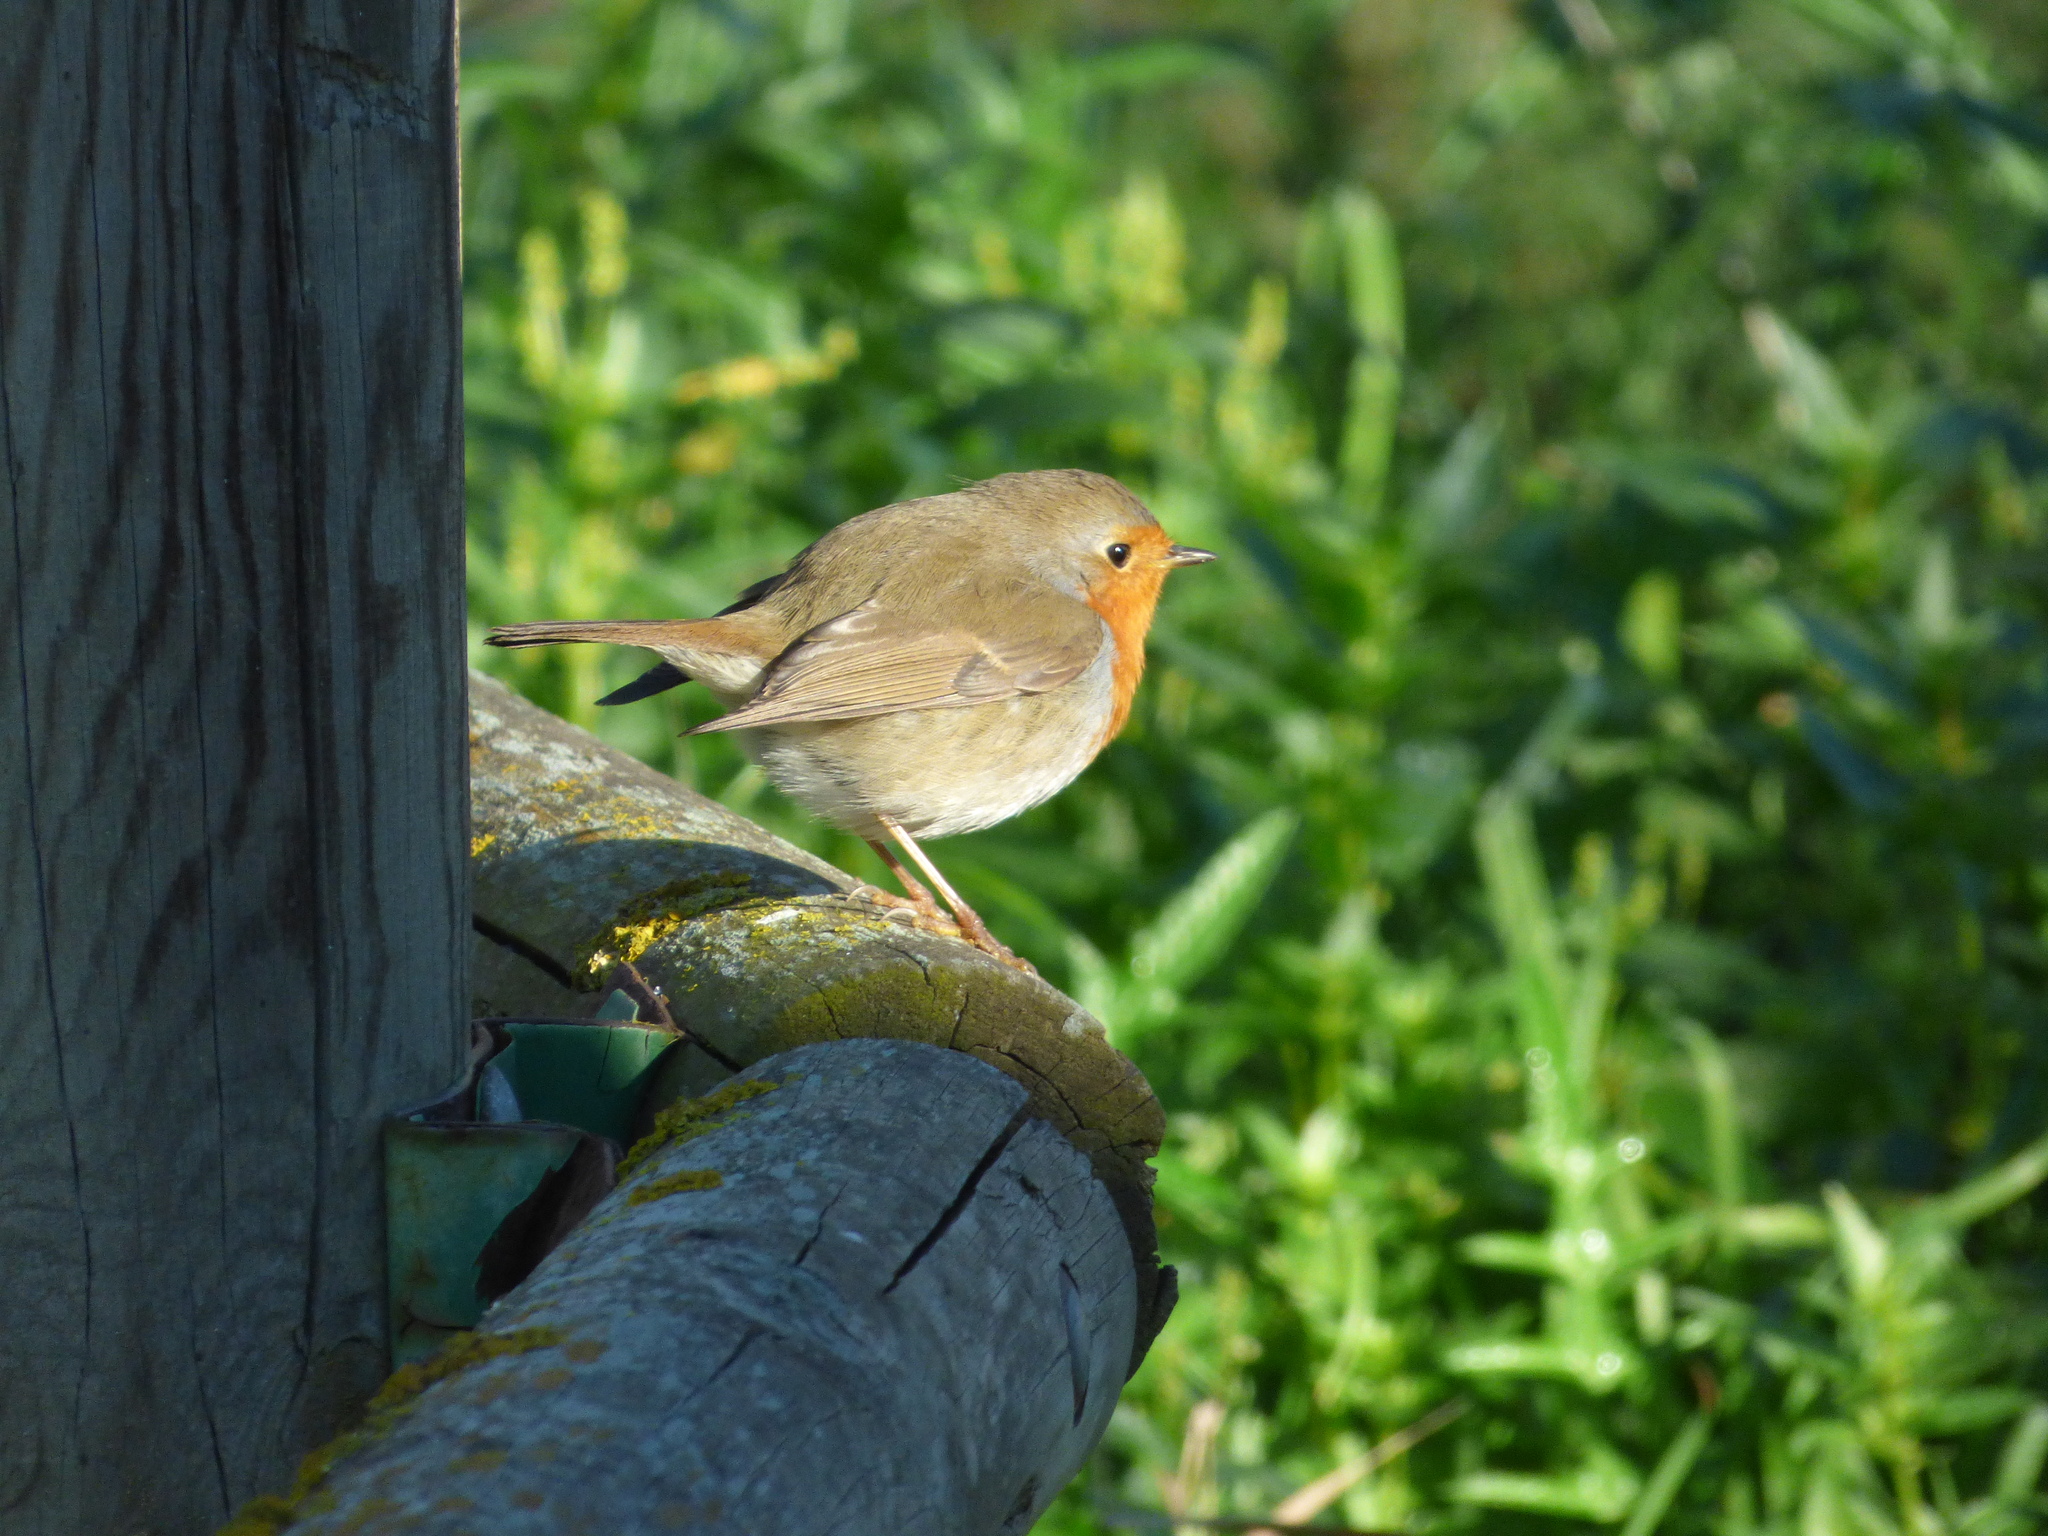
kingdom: Animalia
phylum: Chordata
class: Aves
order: Passeriformes
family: Muscicapidae
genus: Erithacus
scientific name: Erithacus rubecula
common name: European robin
